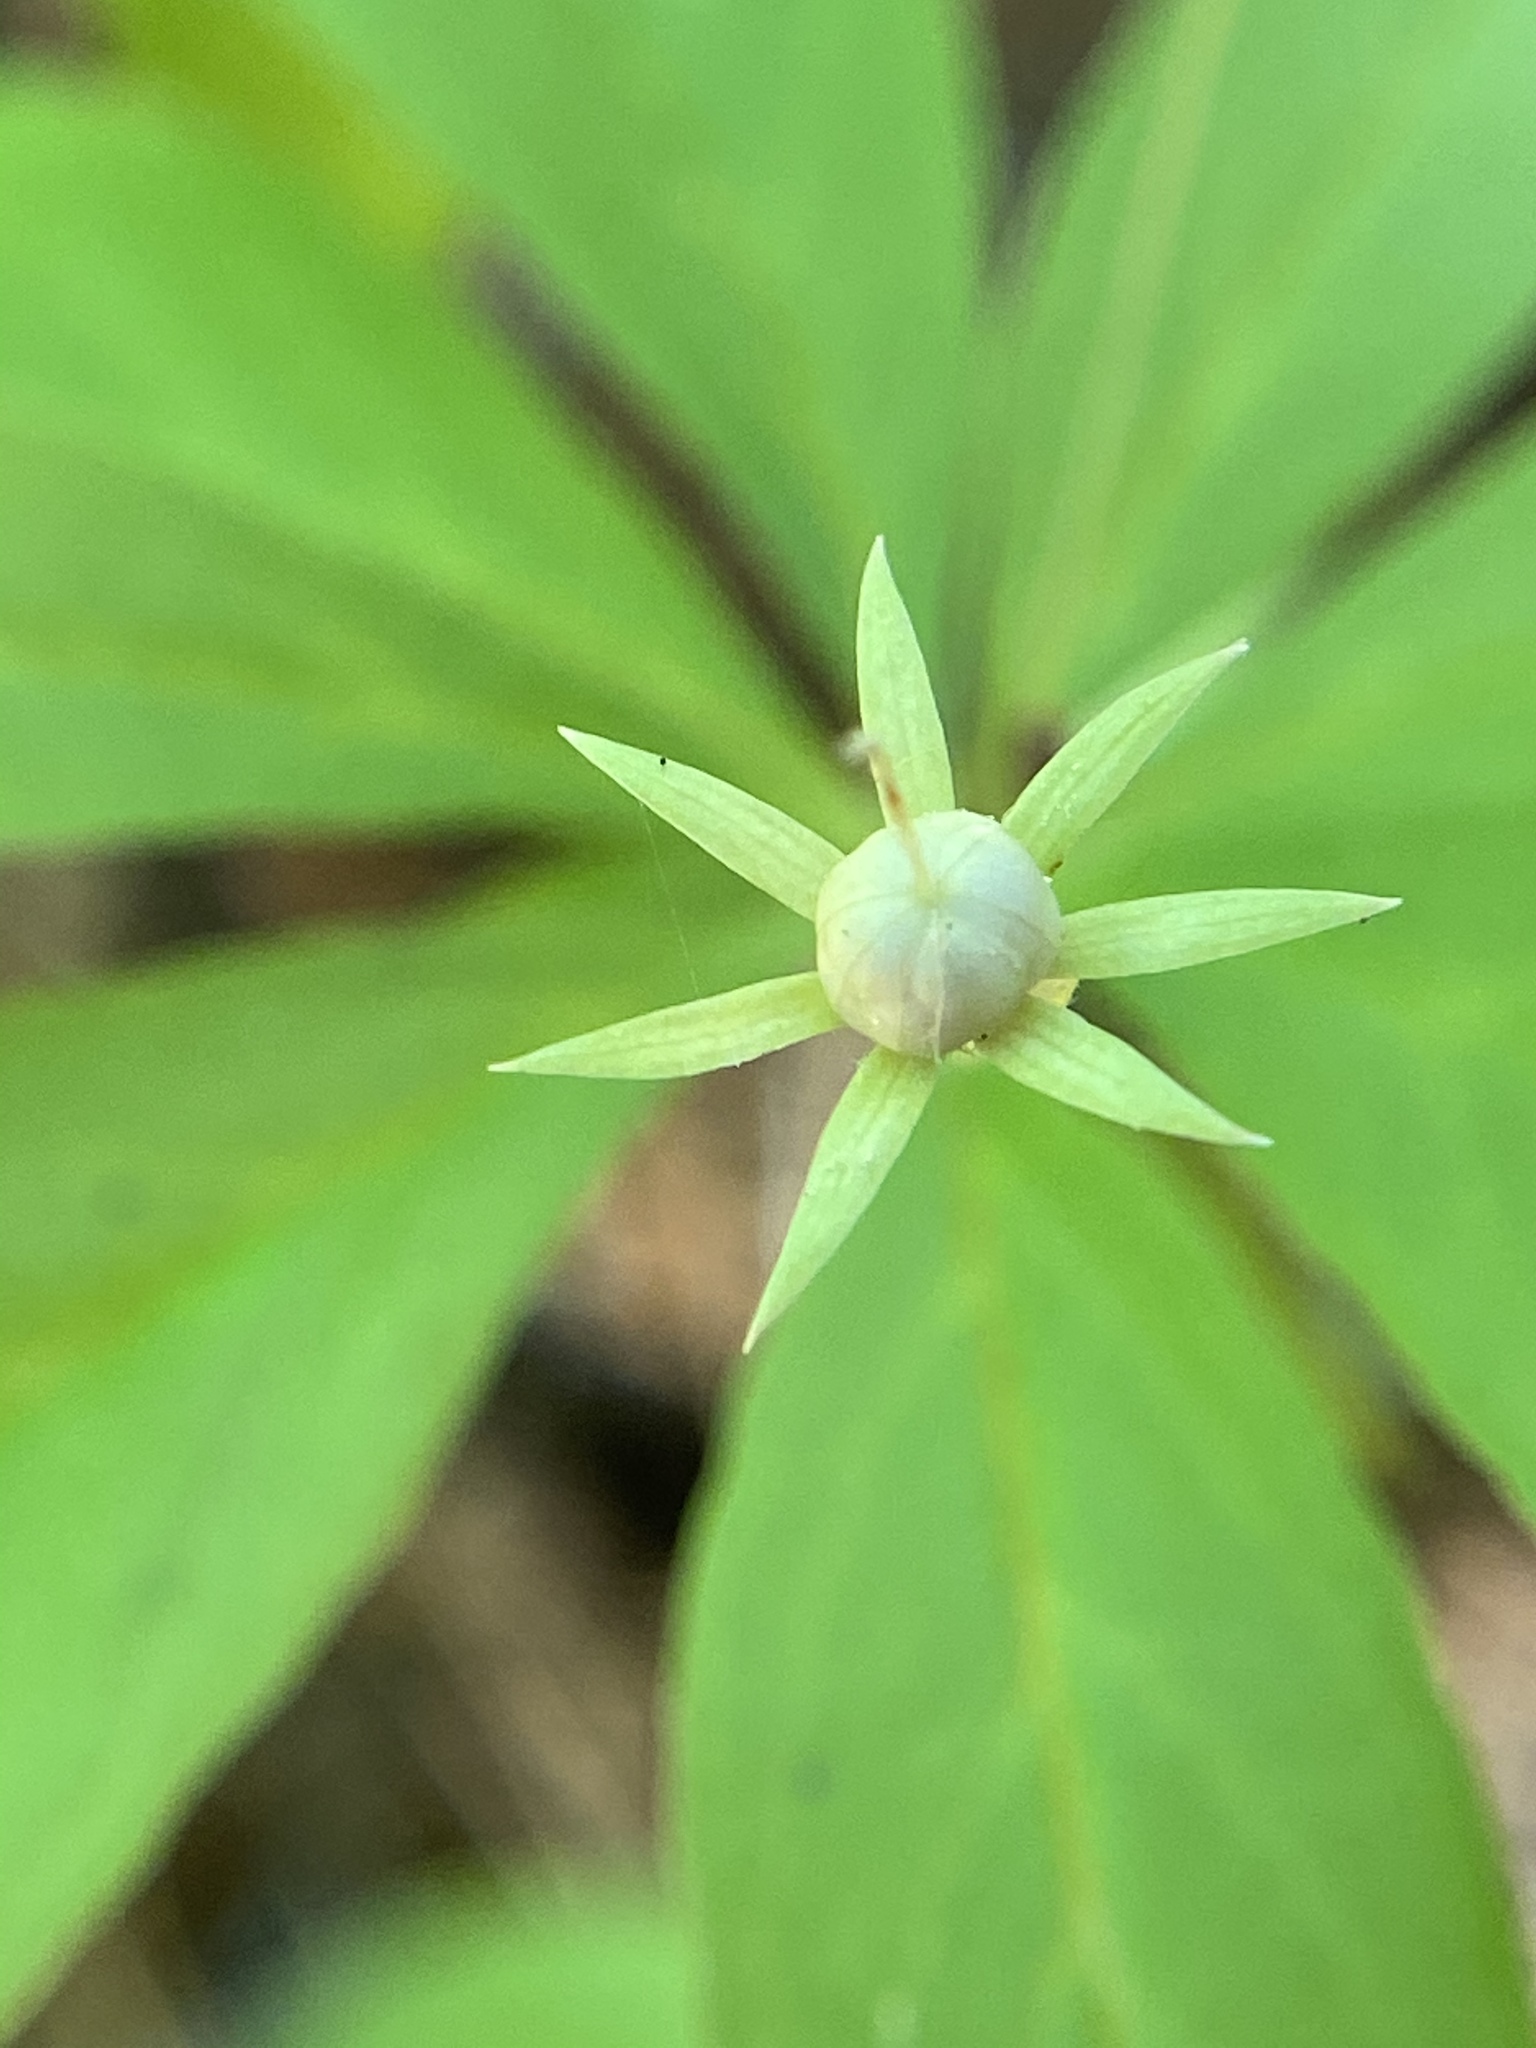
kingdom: Plantae
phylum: Tracheophyta
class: Magnoliopsida
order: Ericales
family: Primulaceae
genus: Lysimachia
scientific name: Lysimachia borealis
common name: American starflower
